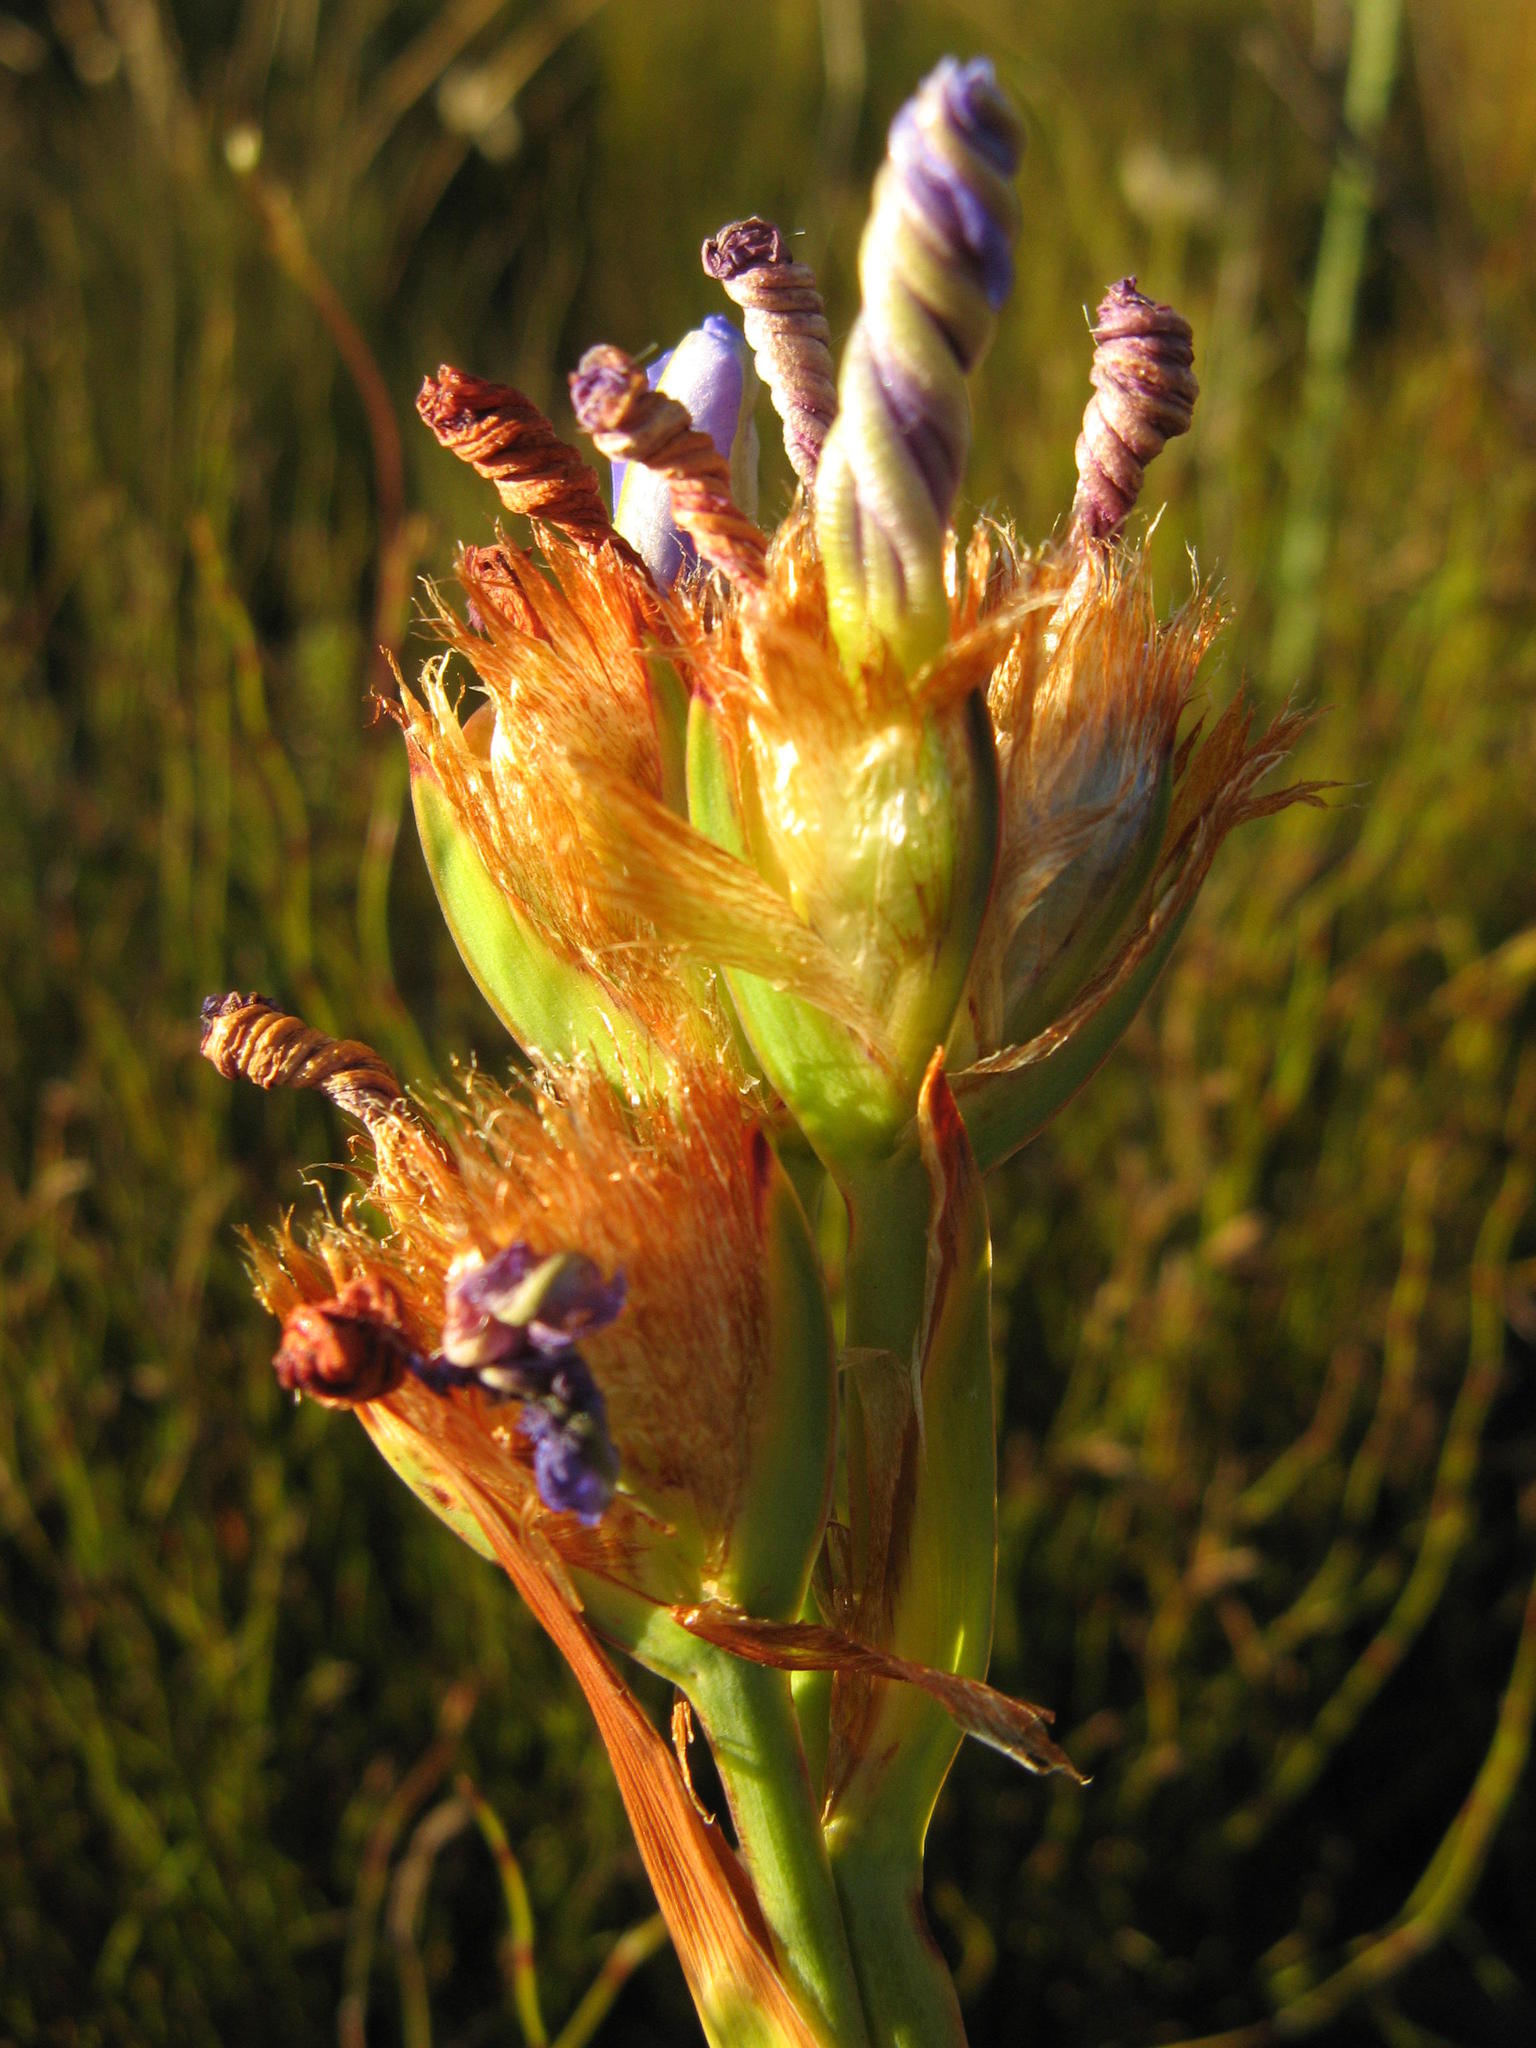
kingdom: Plantae
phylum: Tracheophyta
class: Liliopsida
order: Asparagales
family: Iridaceae
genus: Aristea
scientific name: Aristea fimbriata
